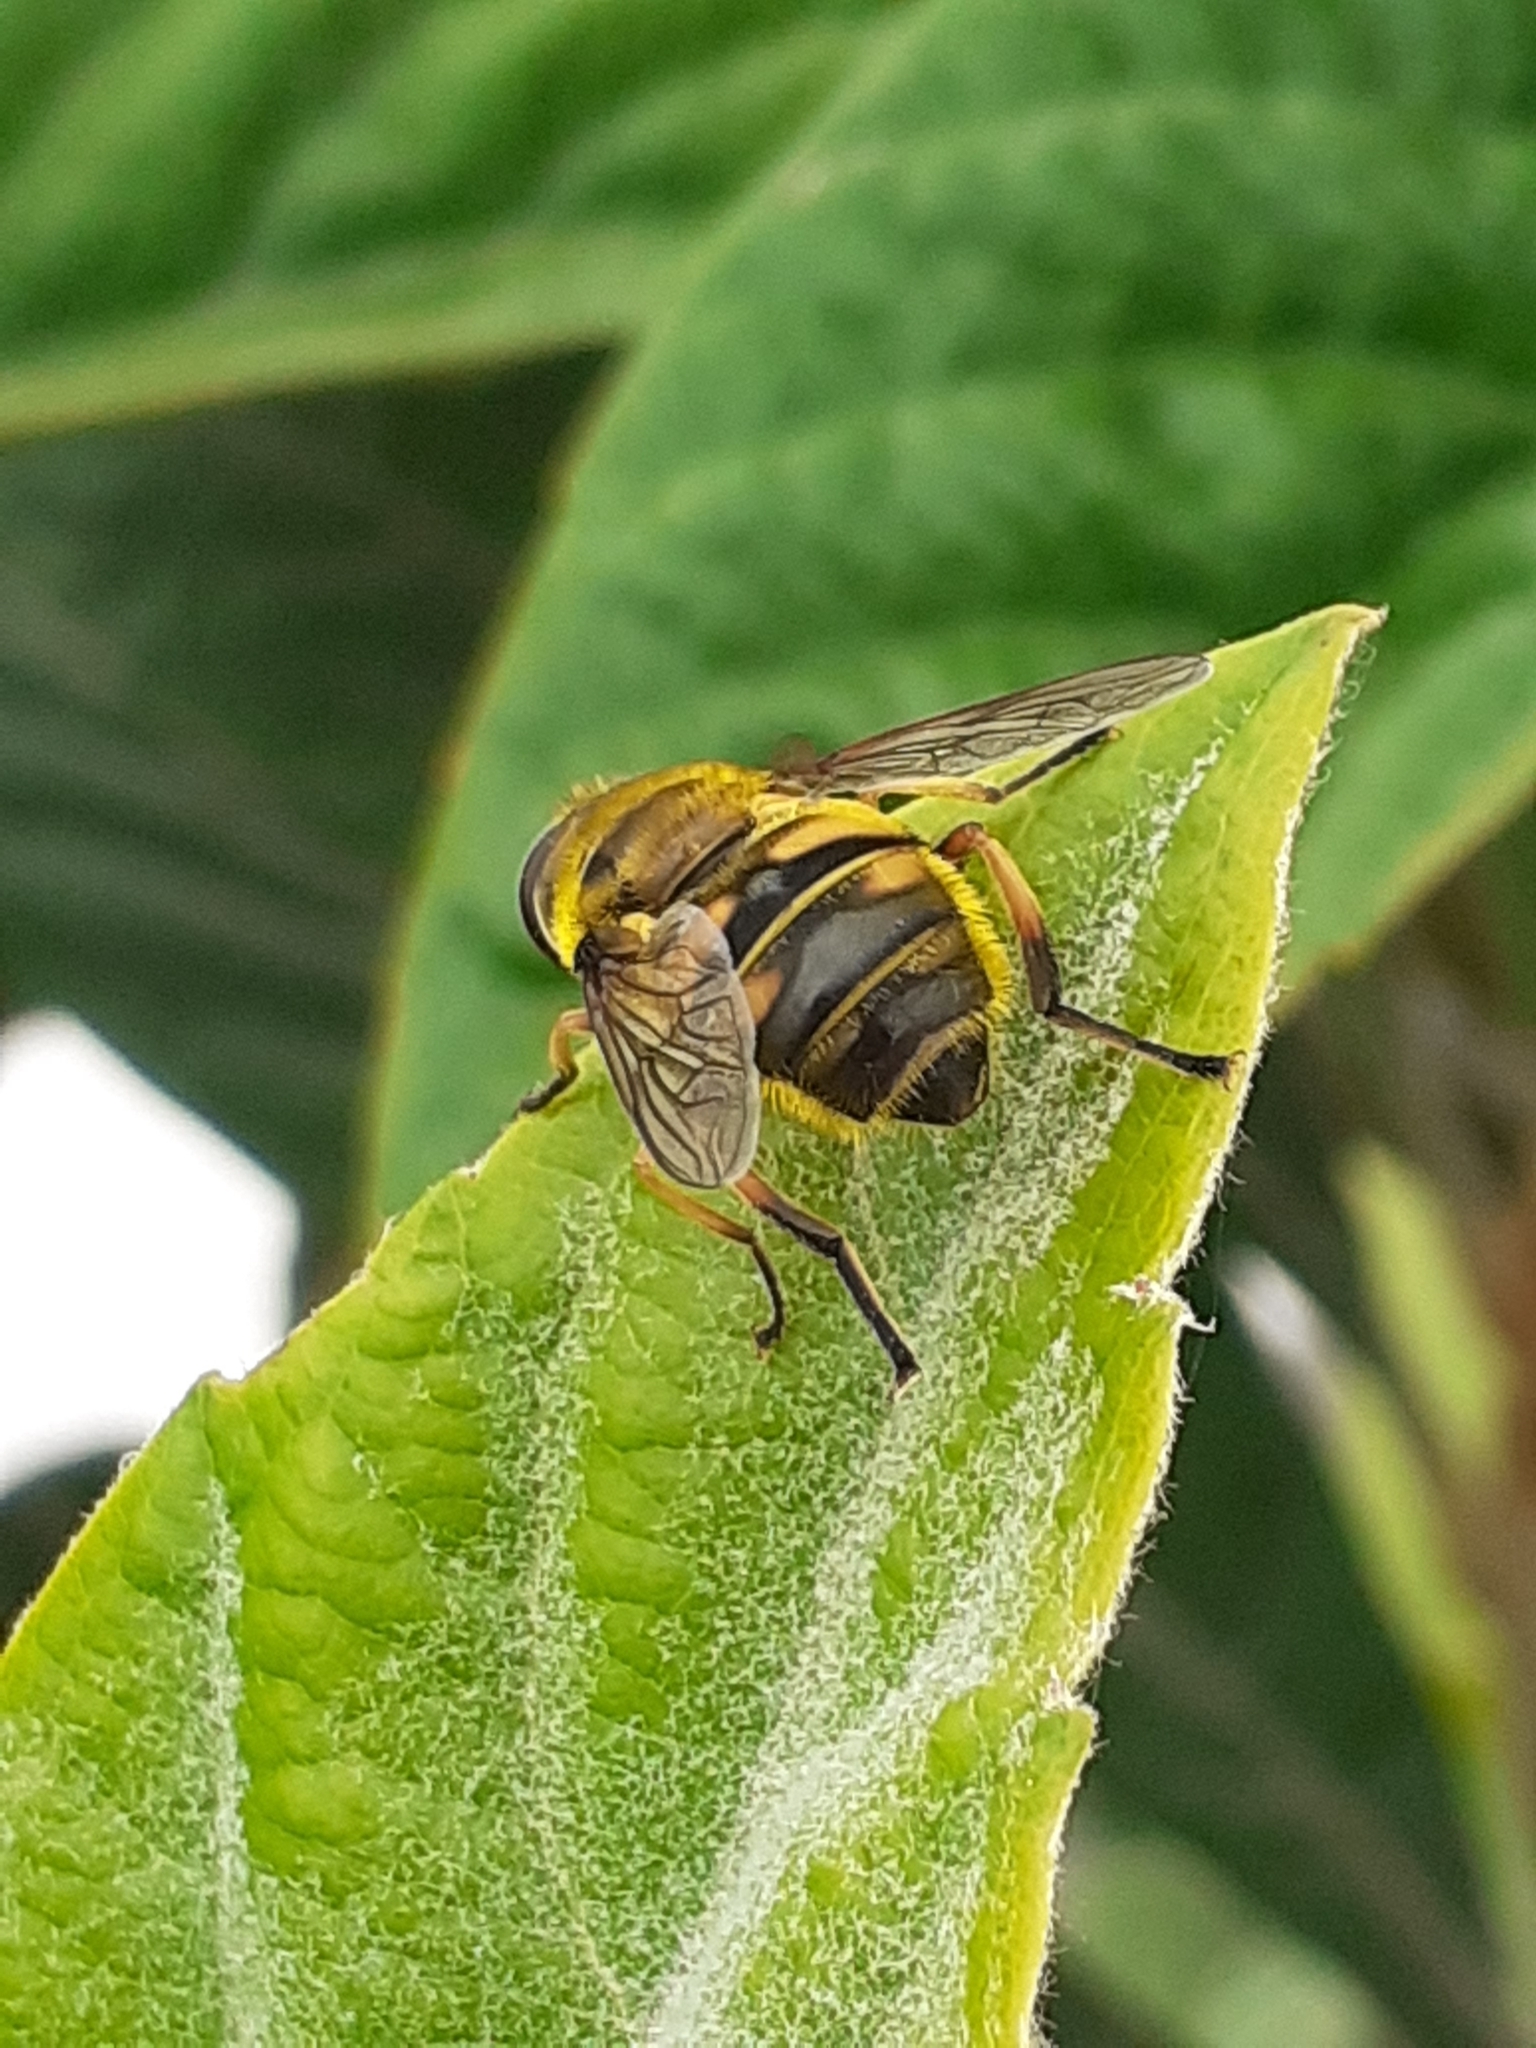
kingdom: Animalia
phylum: Arthropoda
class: Insecta
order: Diptera
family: Syrphidae
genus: Myathropa
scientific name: Myathropa florea
